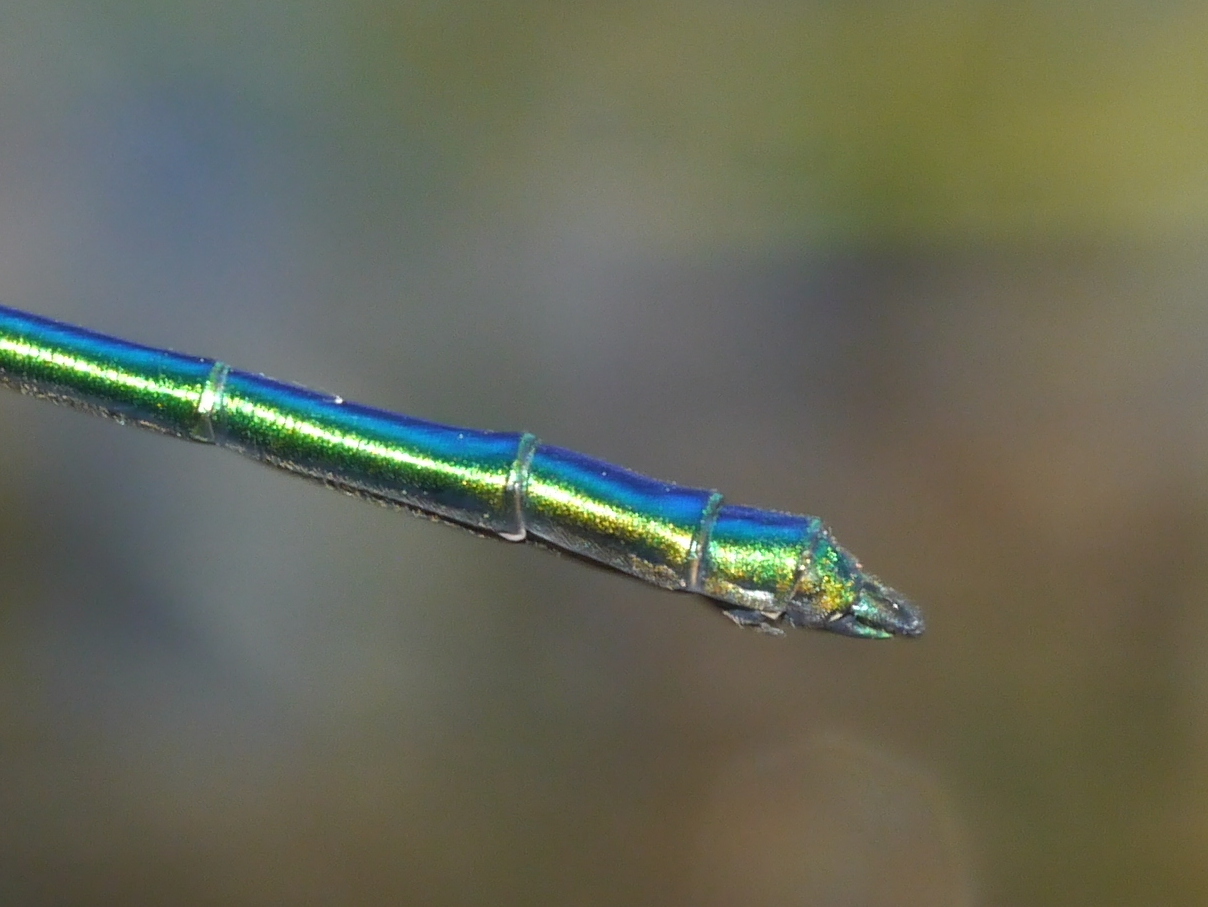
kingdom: Animalia
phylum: Arthropoda
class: Insecta
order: Odonata
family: Calopterygidae
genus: Calopteryx
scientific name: Calopteryx dimidiata
